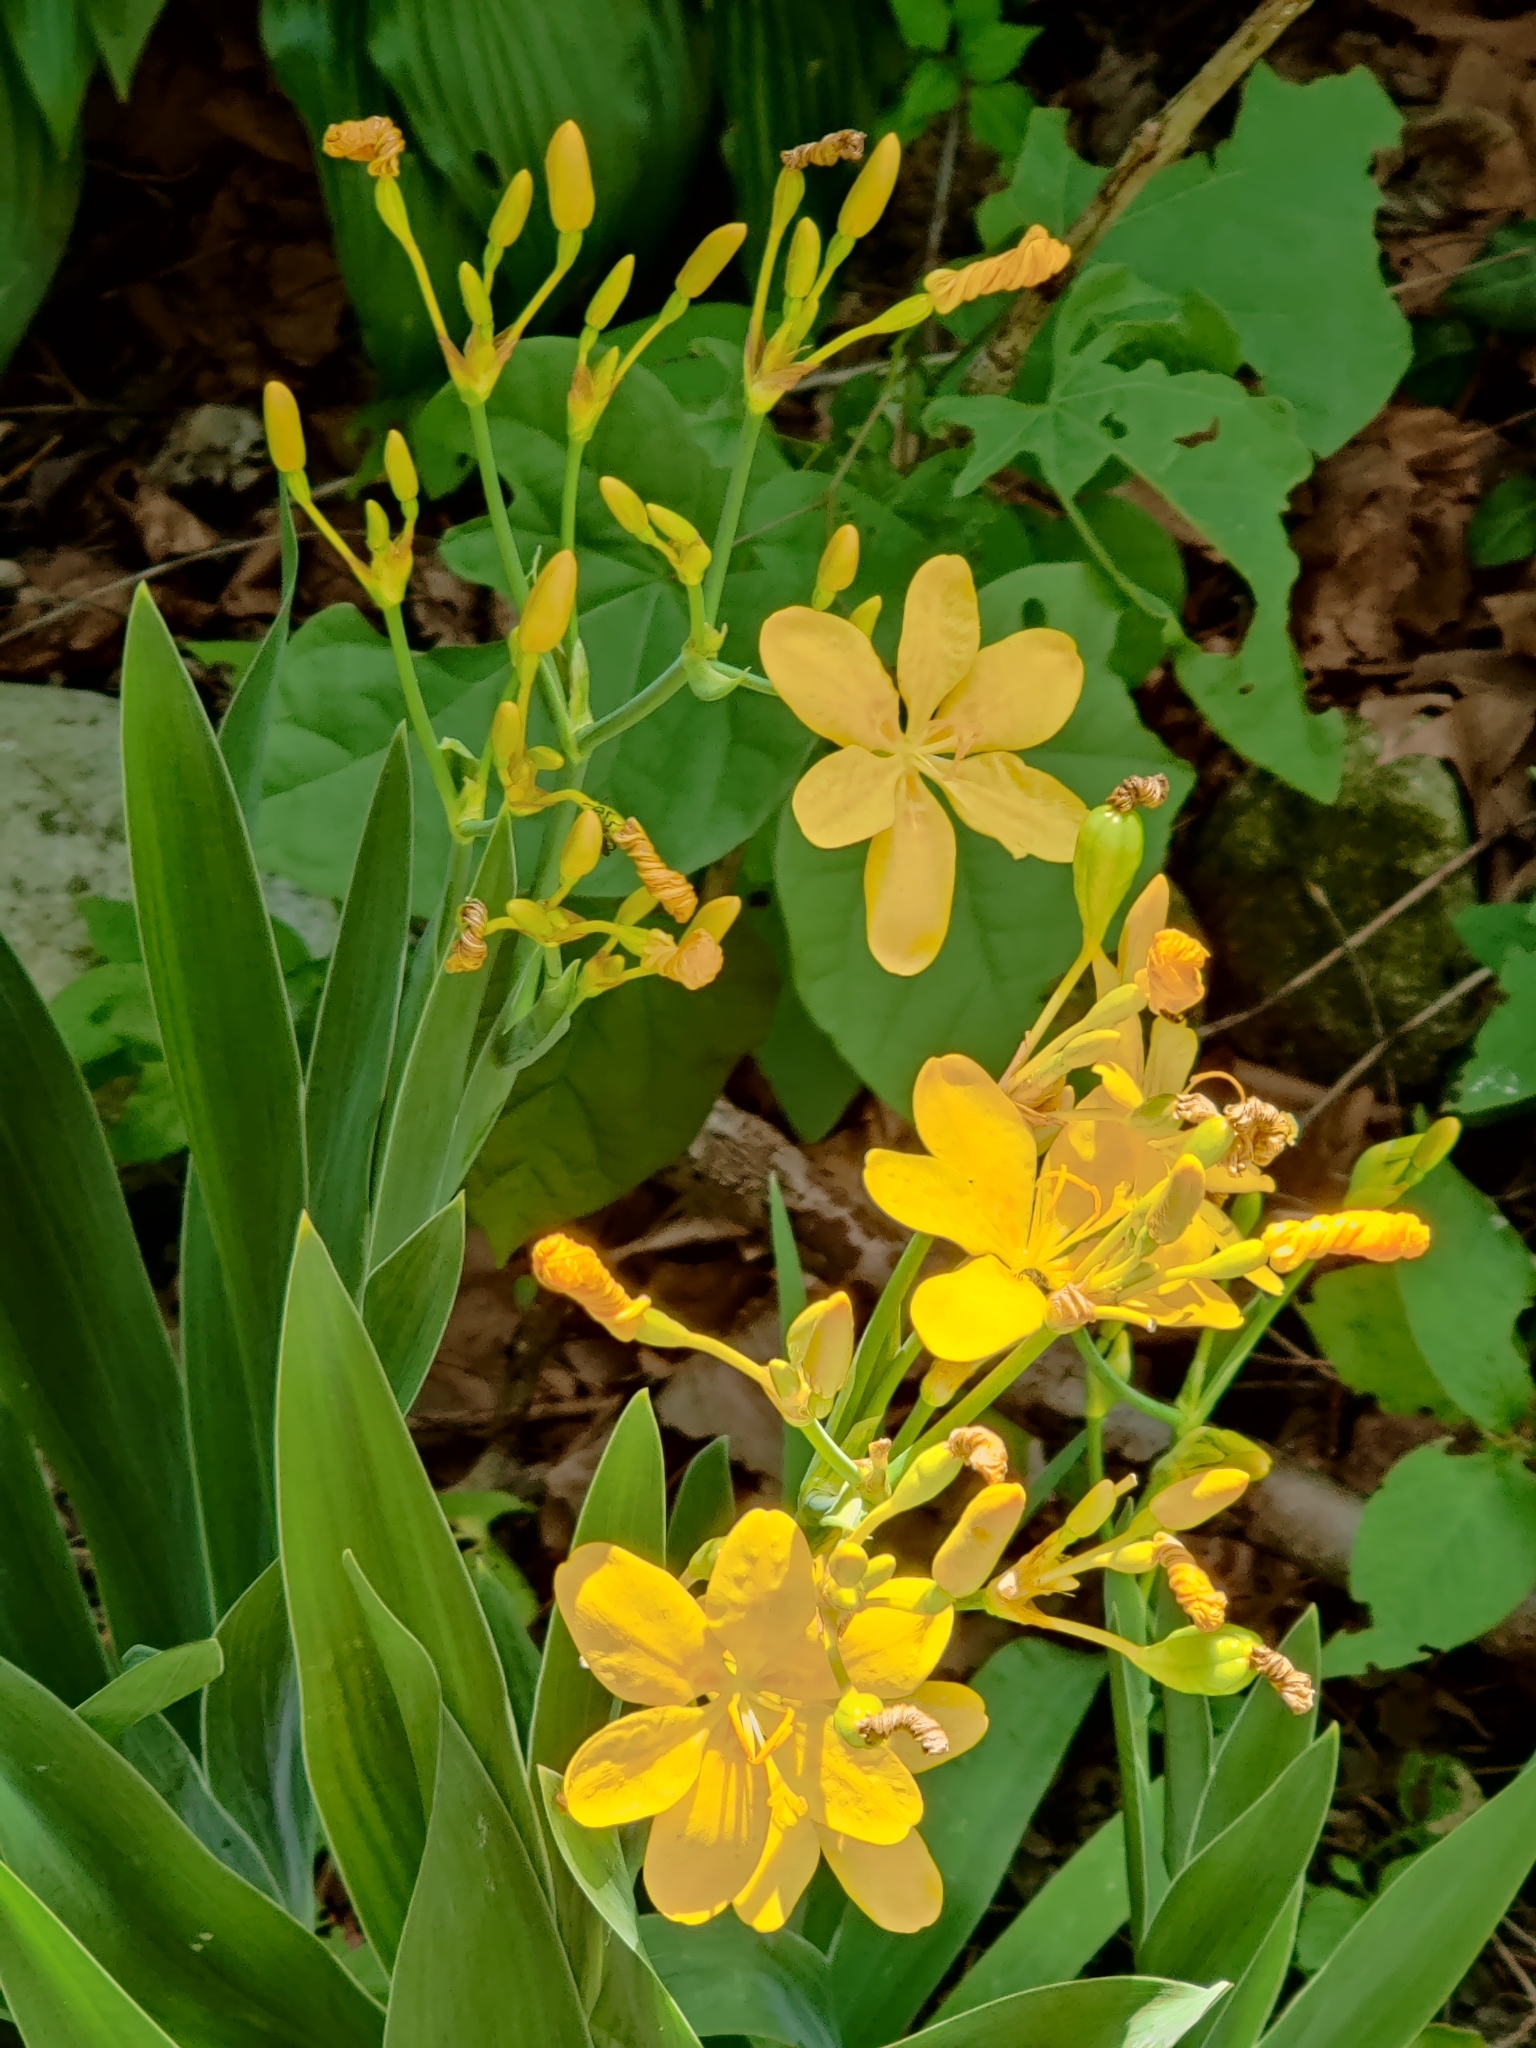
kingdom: Plantae
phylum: Tracheophyta
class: Liliopsida
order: Asparagales
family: Iridaceae
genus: Iris
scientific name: Iris domestica
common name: Belamcanda
